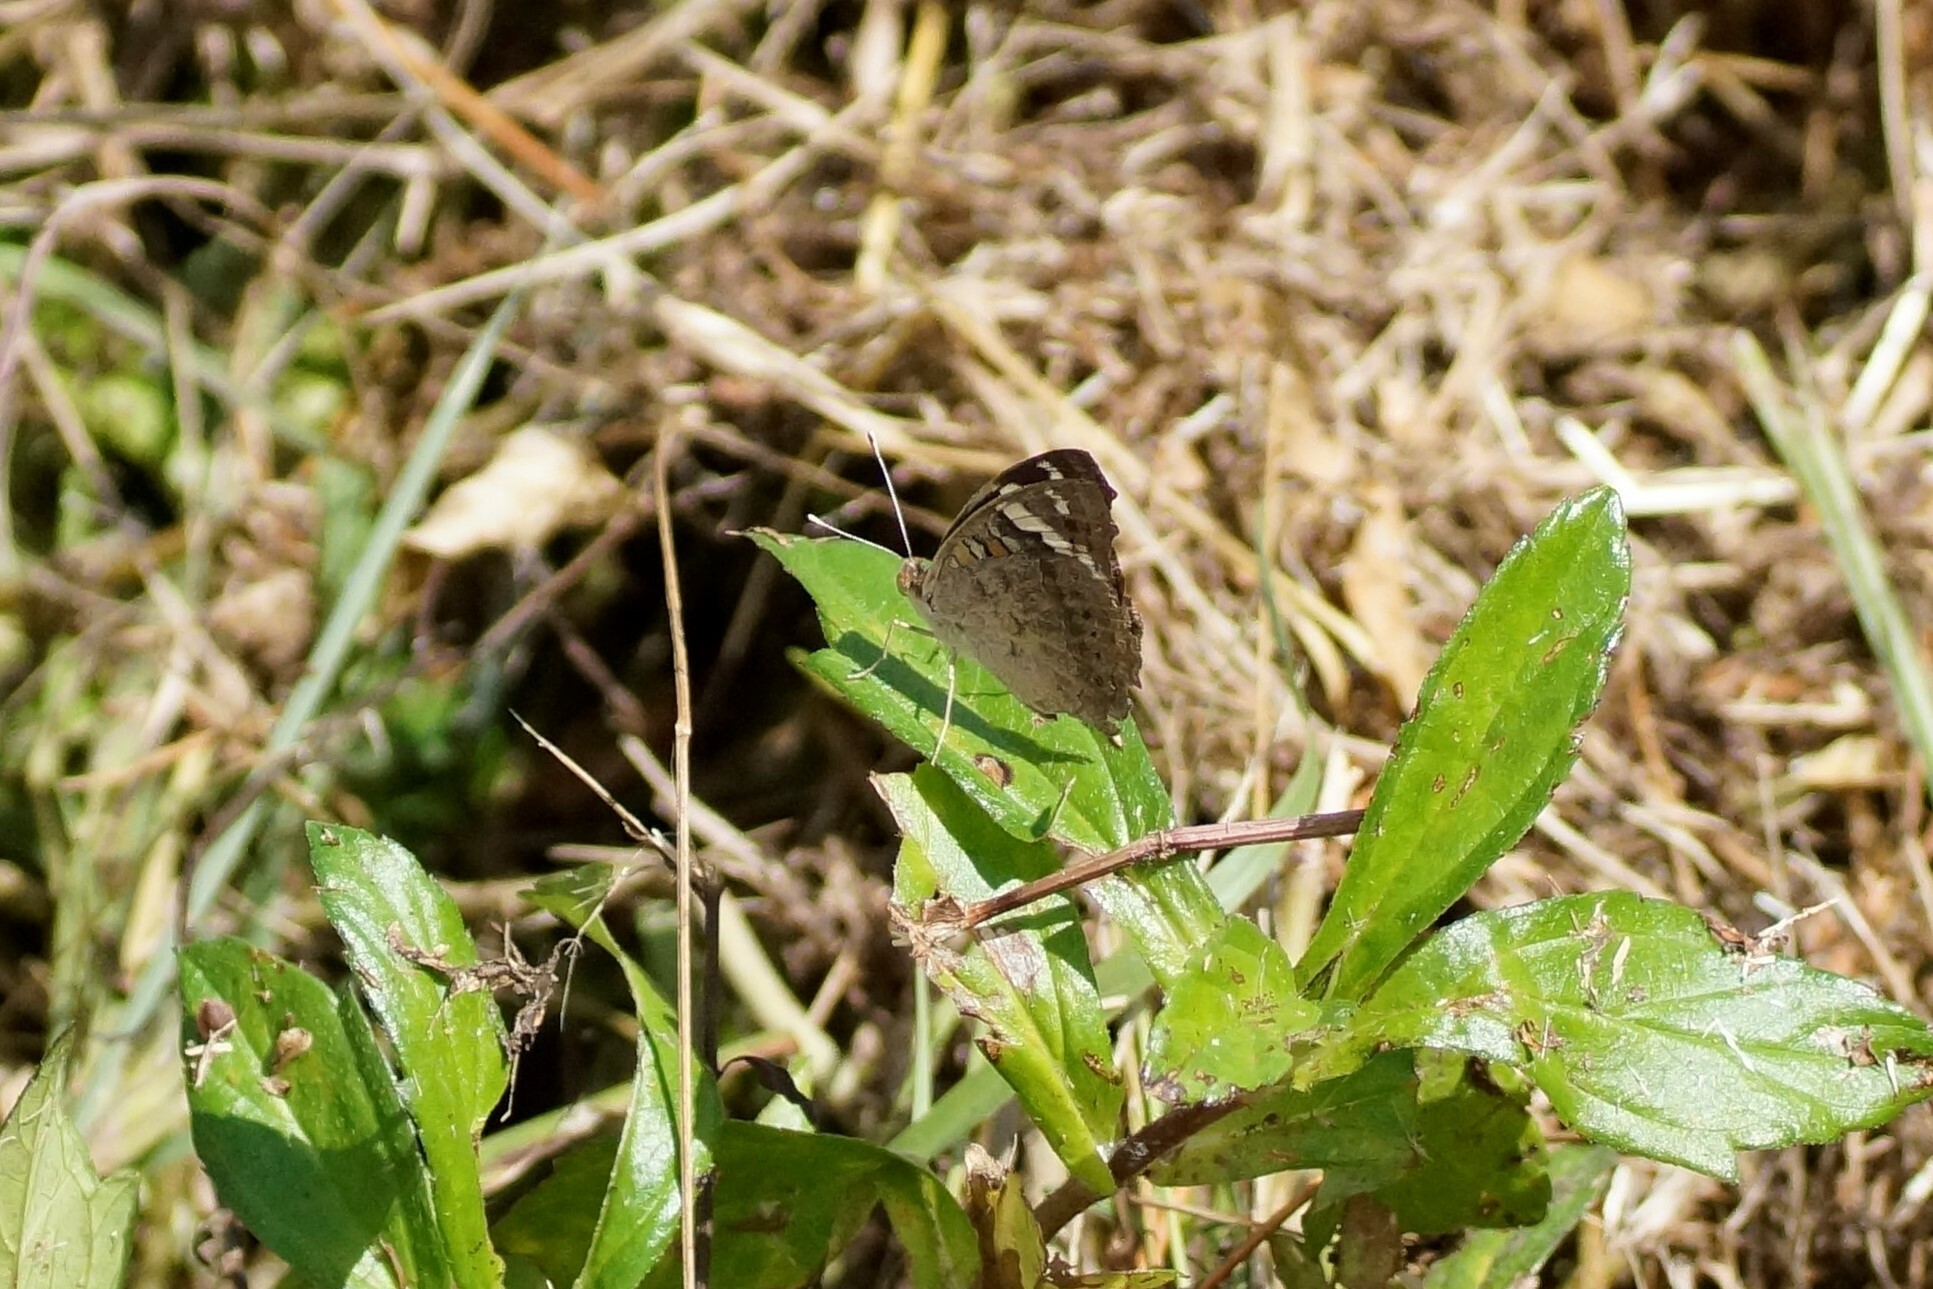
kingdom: Animalia
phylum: Arthropoda
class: Insecta
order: Lepidoptera
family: Nymphalidae
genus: Junonia
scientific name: Junonia orithya
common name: Blue pansy
